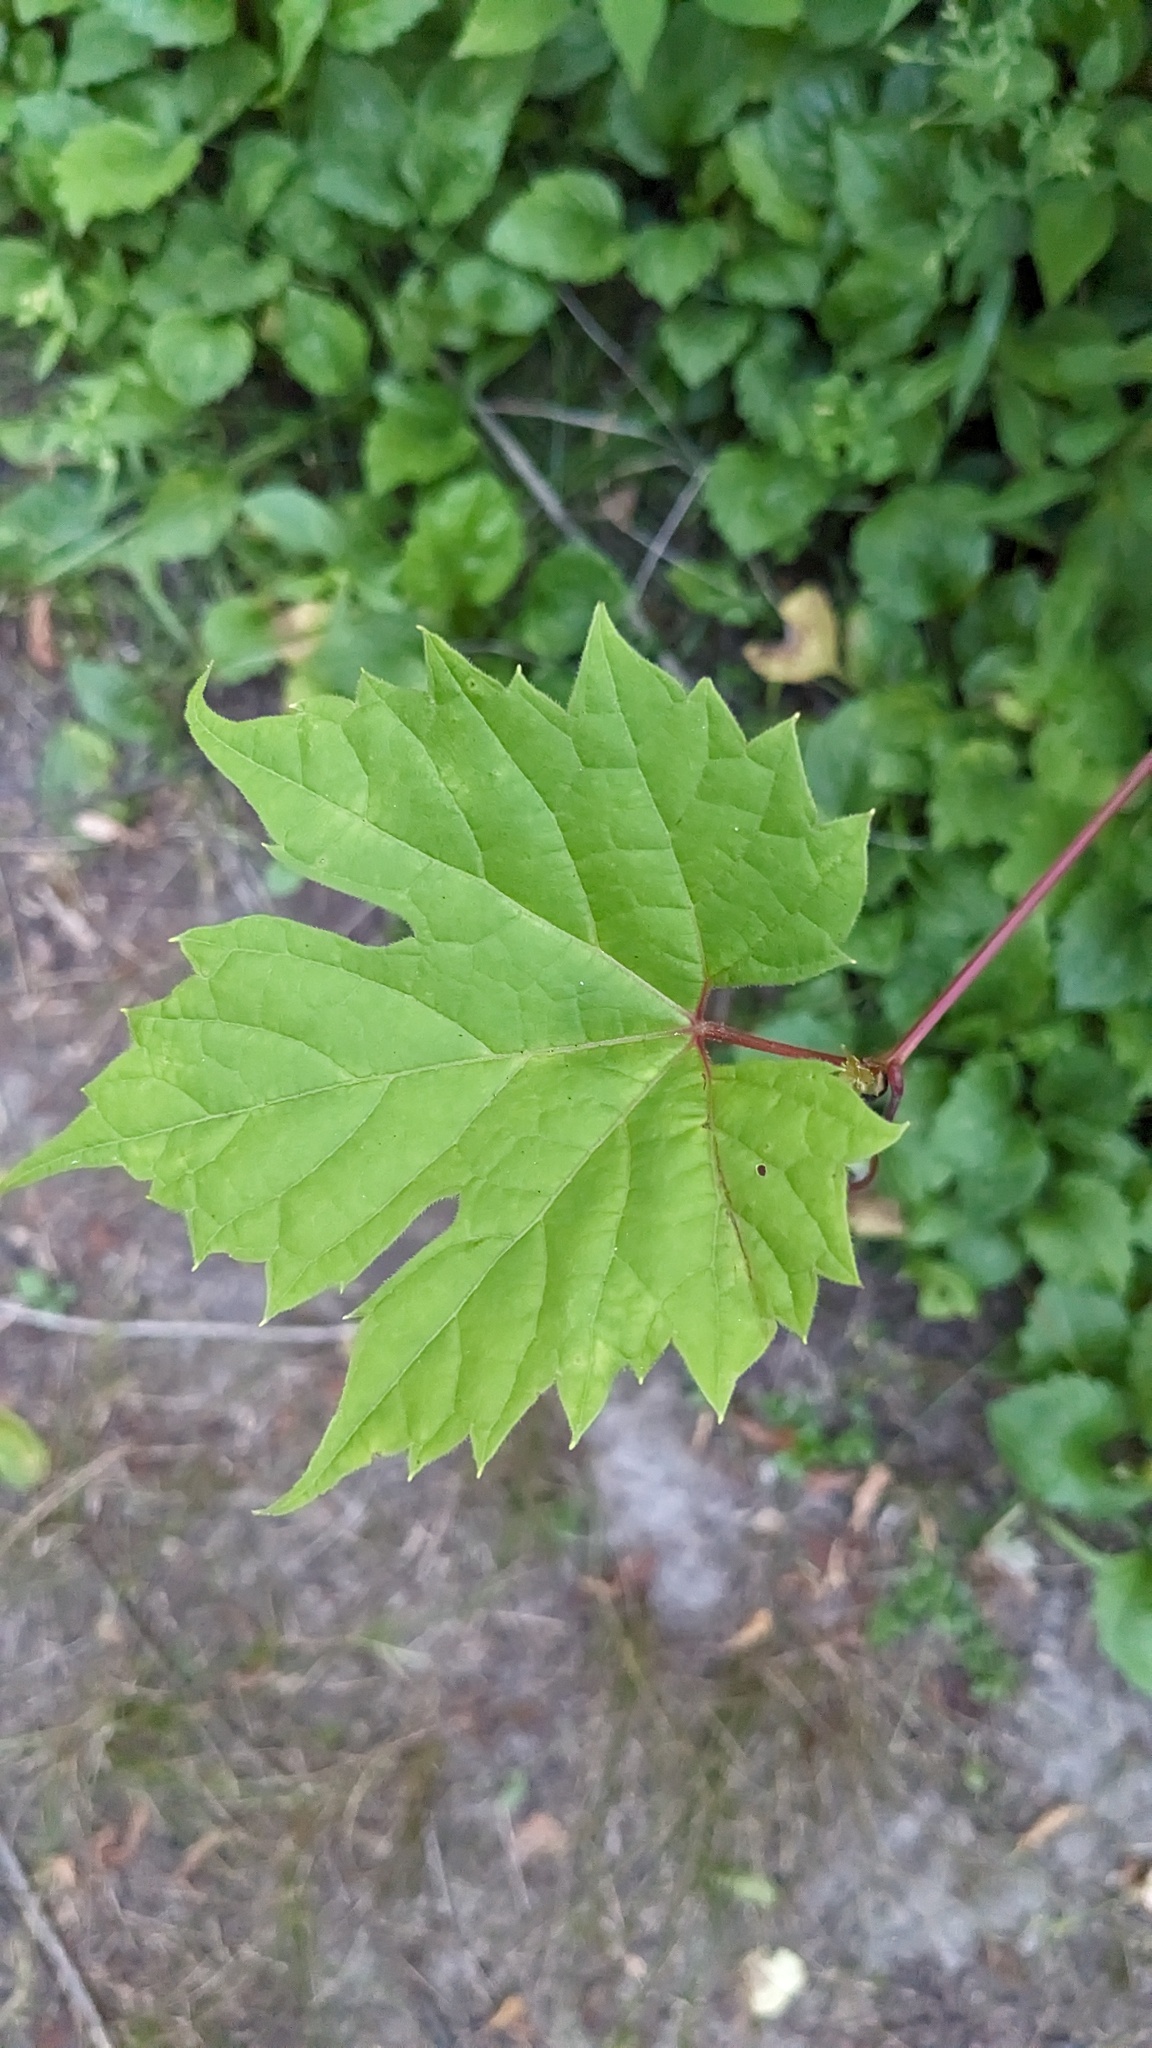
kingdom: Plantae
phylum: Tracheophyta
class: Magnoliopsida
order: Vitales
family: Vitaceae
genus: Vitis
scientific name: Vitis riparia
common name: Frost grape
